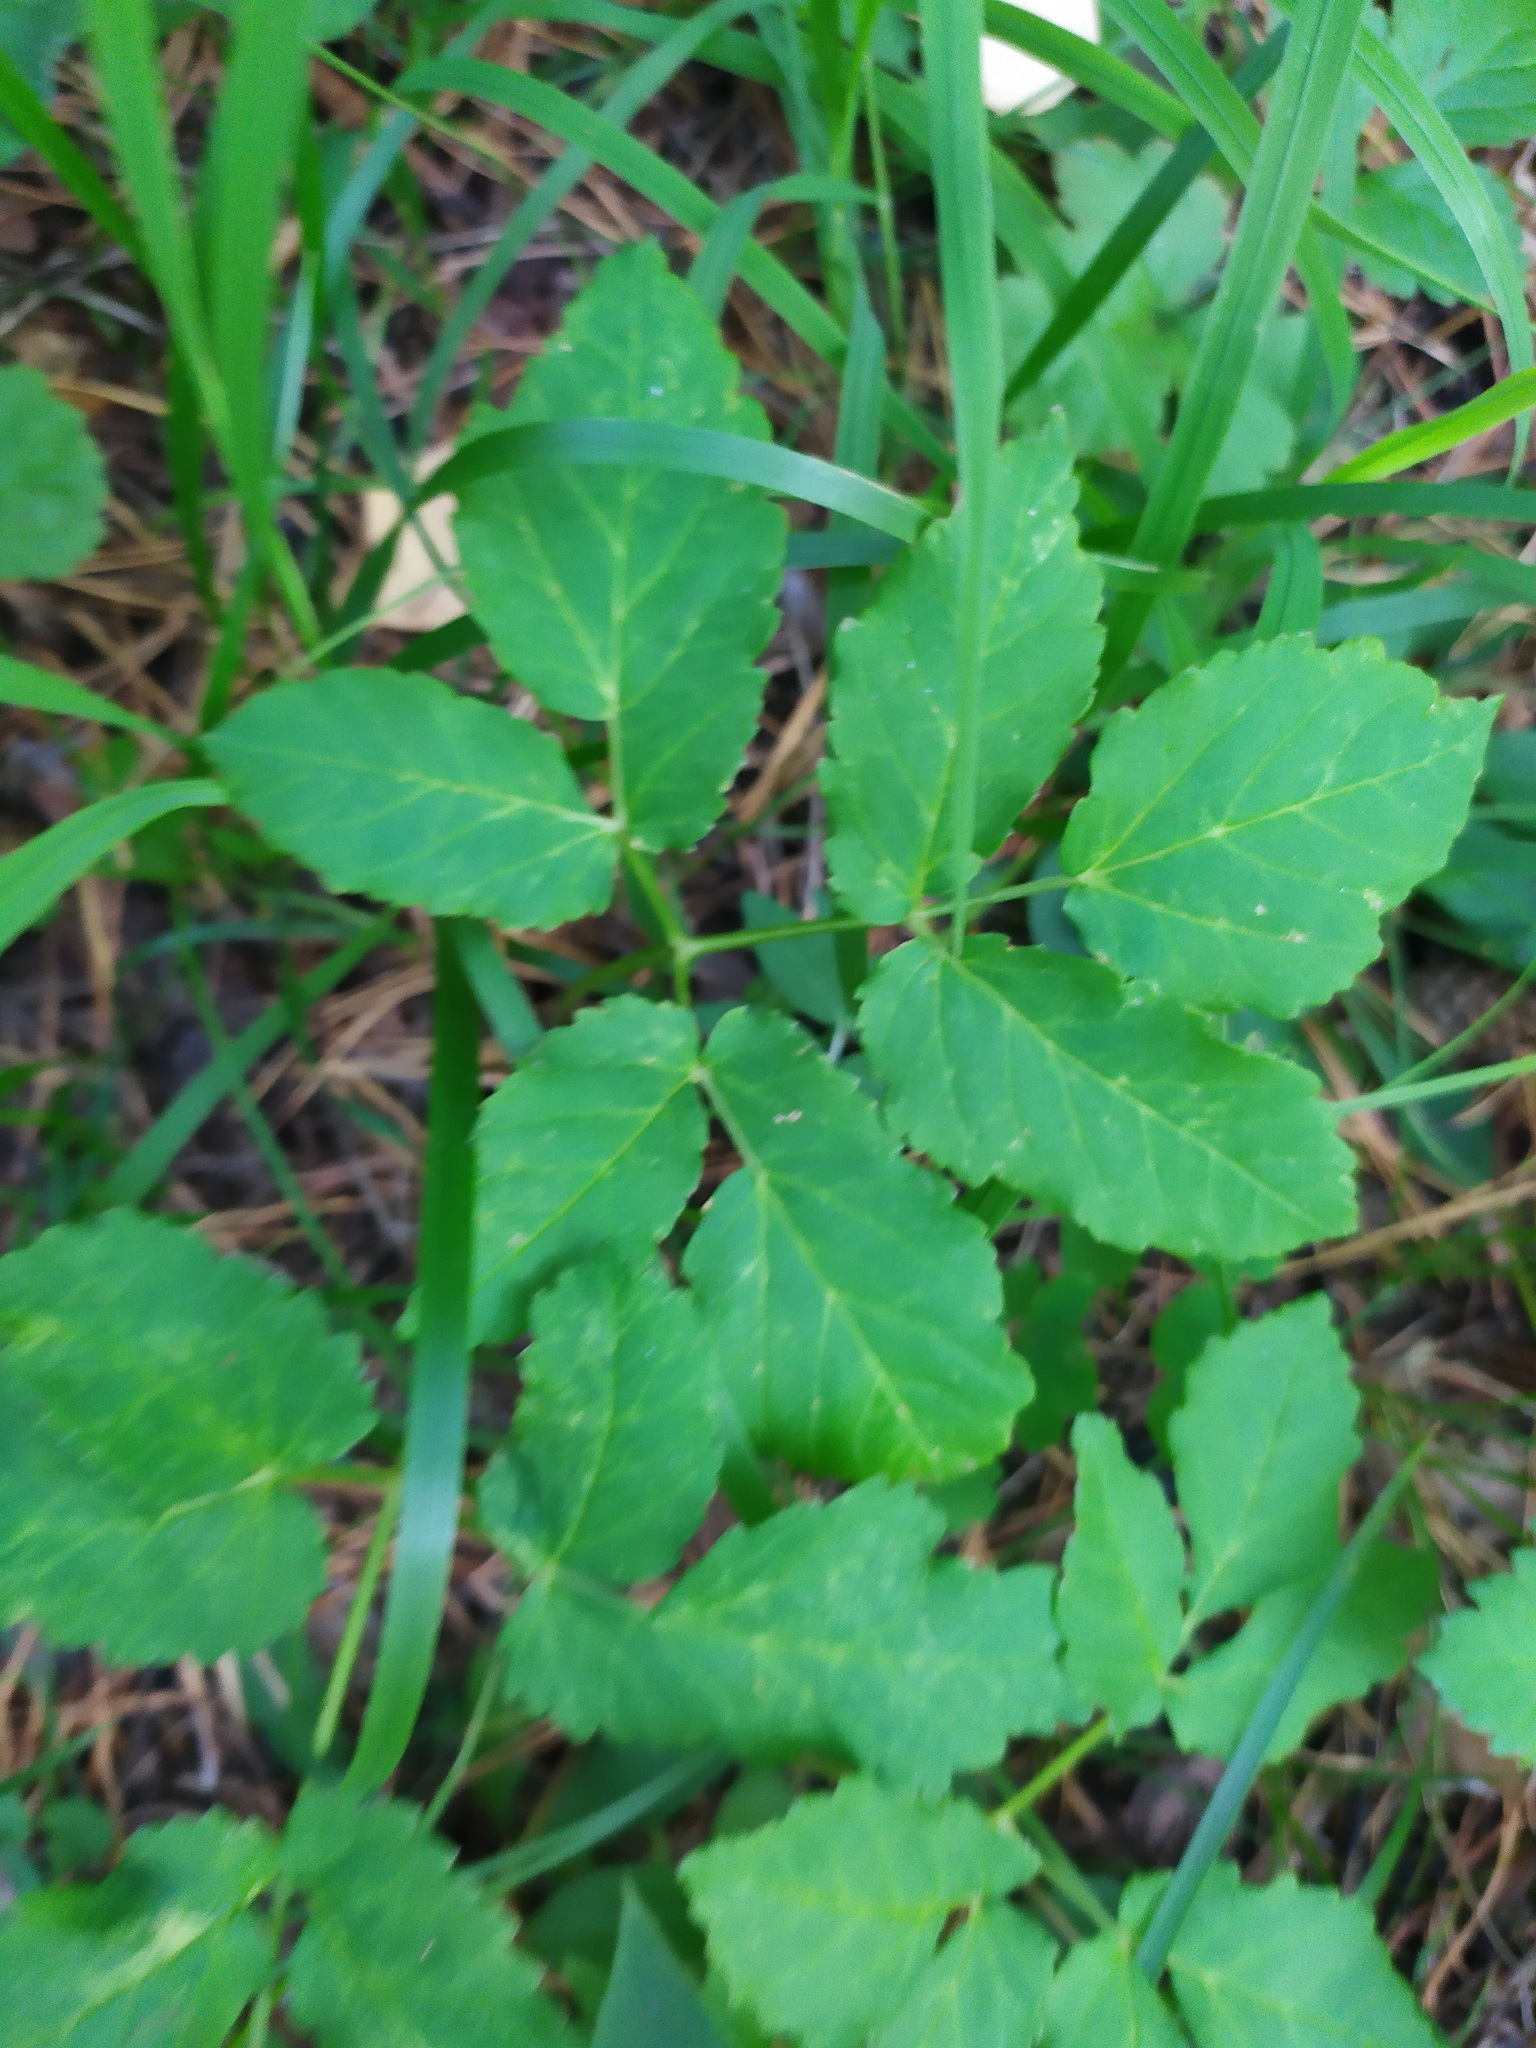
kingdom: Plantae
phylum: Tracheophyta
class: Magnoliopsida
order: Apiales
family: Apiaceae
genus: Aegopodium
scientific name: Aegopodium podagraria
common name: Ground-elder
